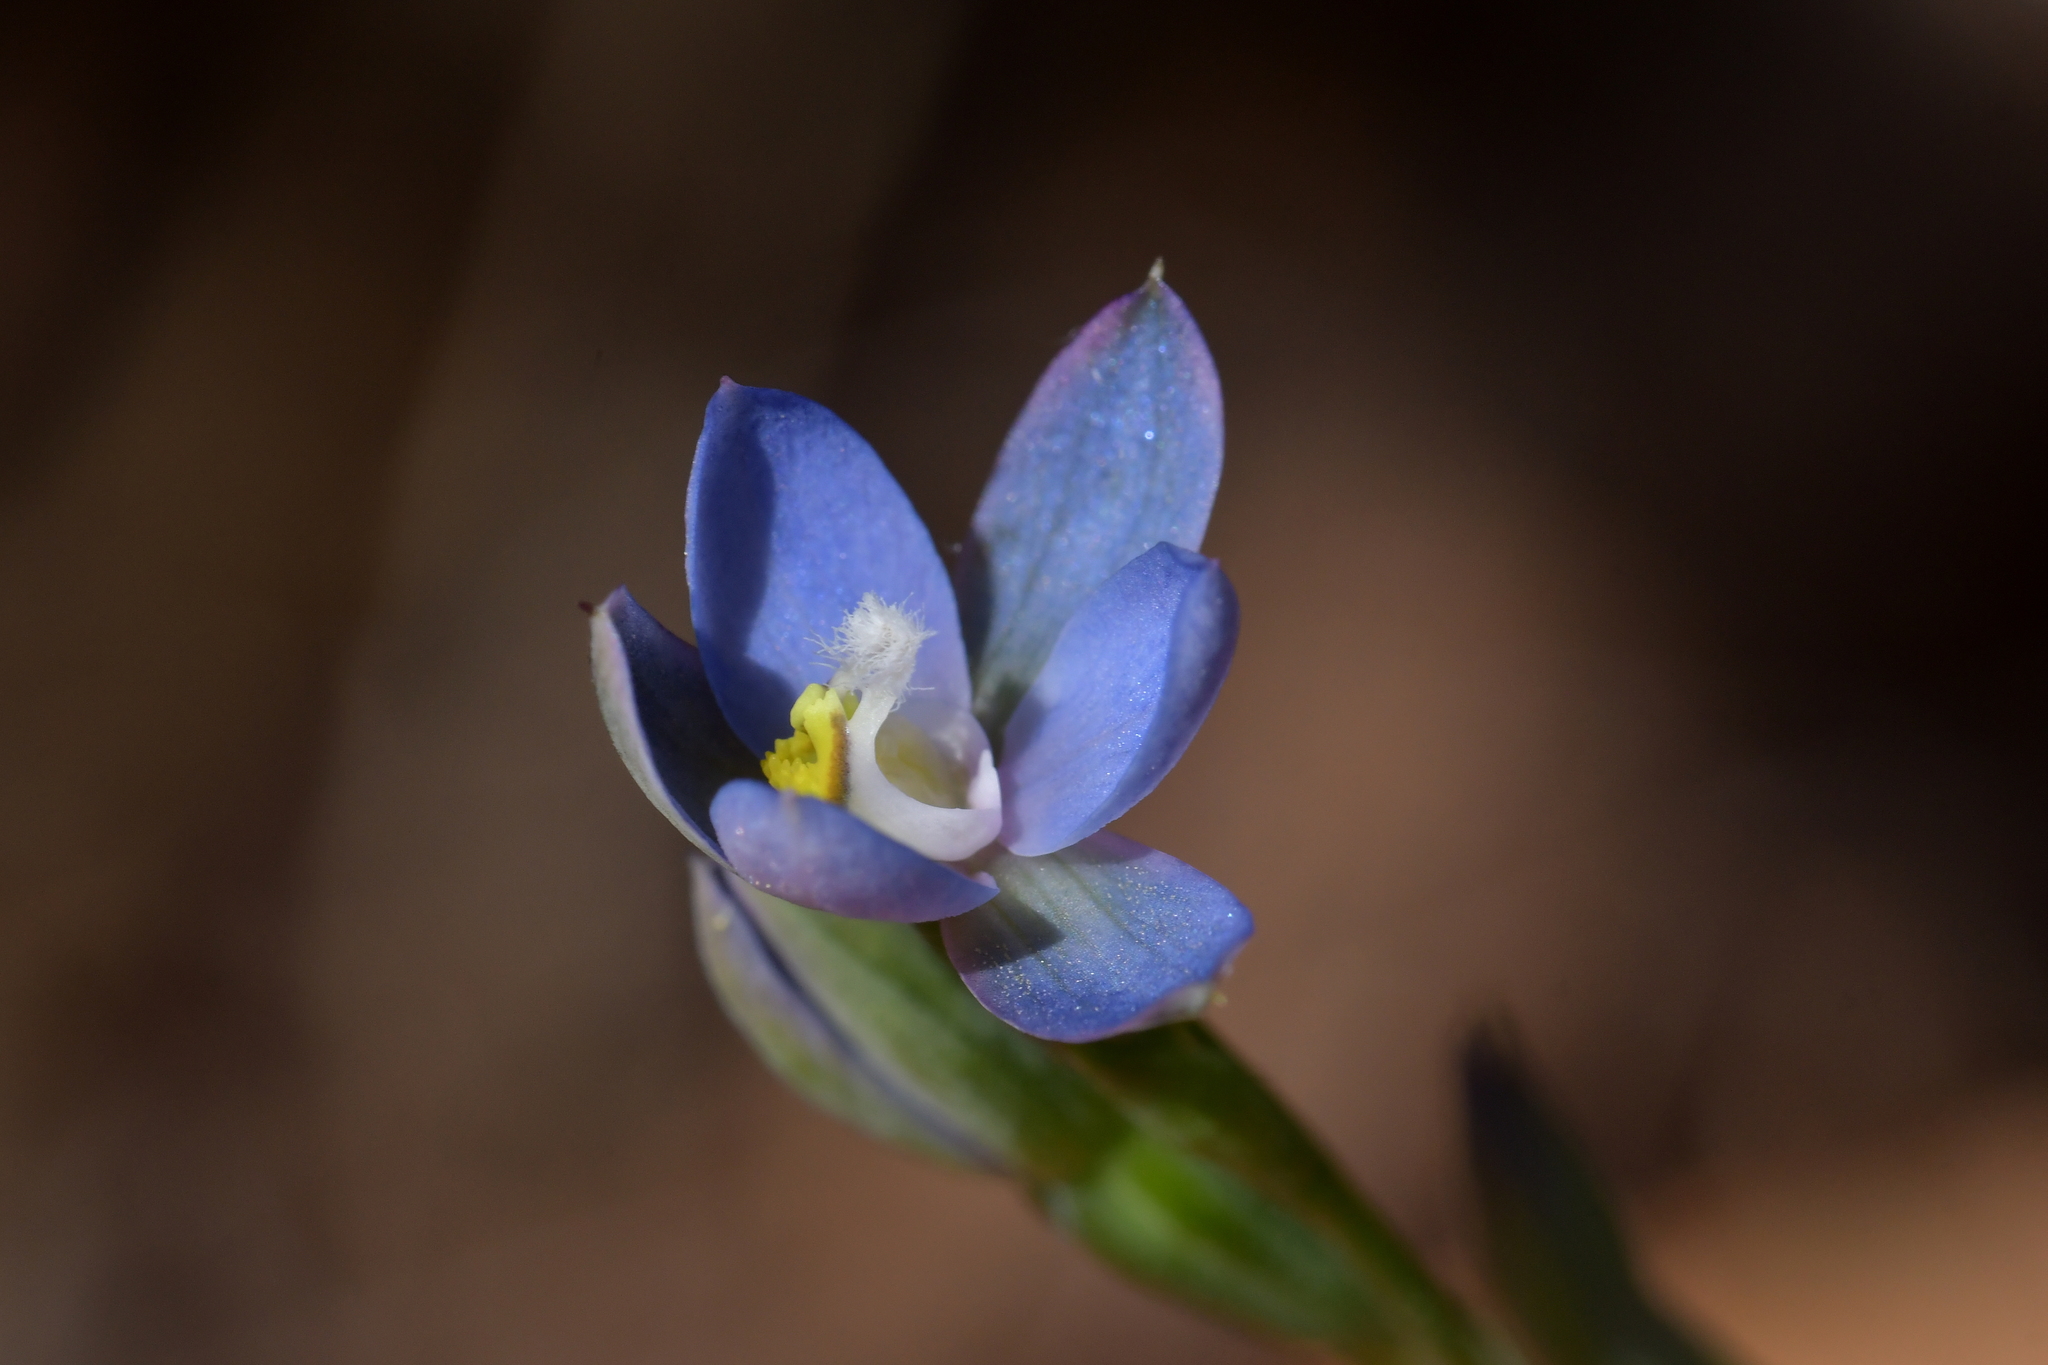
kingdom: Plantae
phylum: Tracheophyta
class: Liliopsida
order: Asparagales
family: Orchidaceae
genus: Thelymitra
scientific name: Thelymitra aemula
